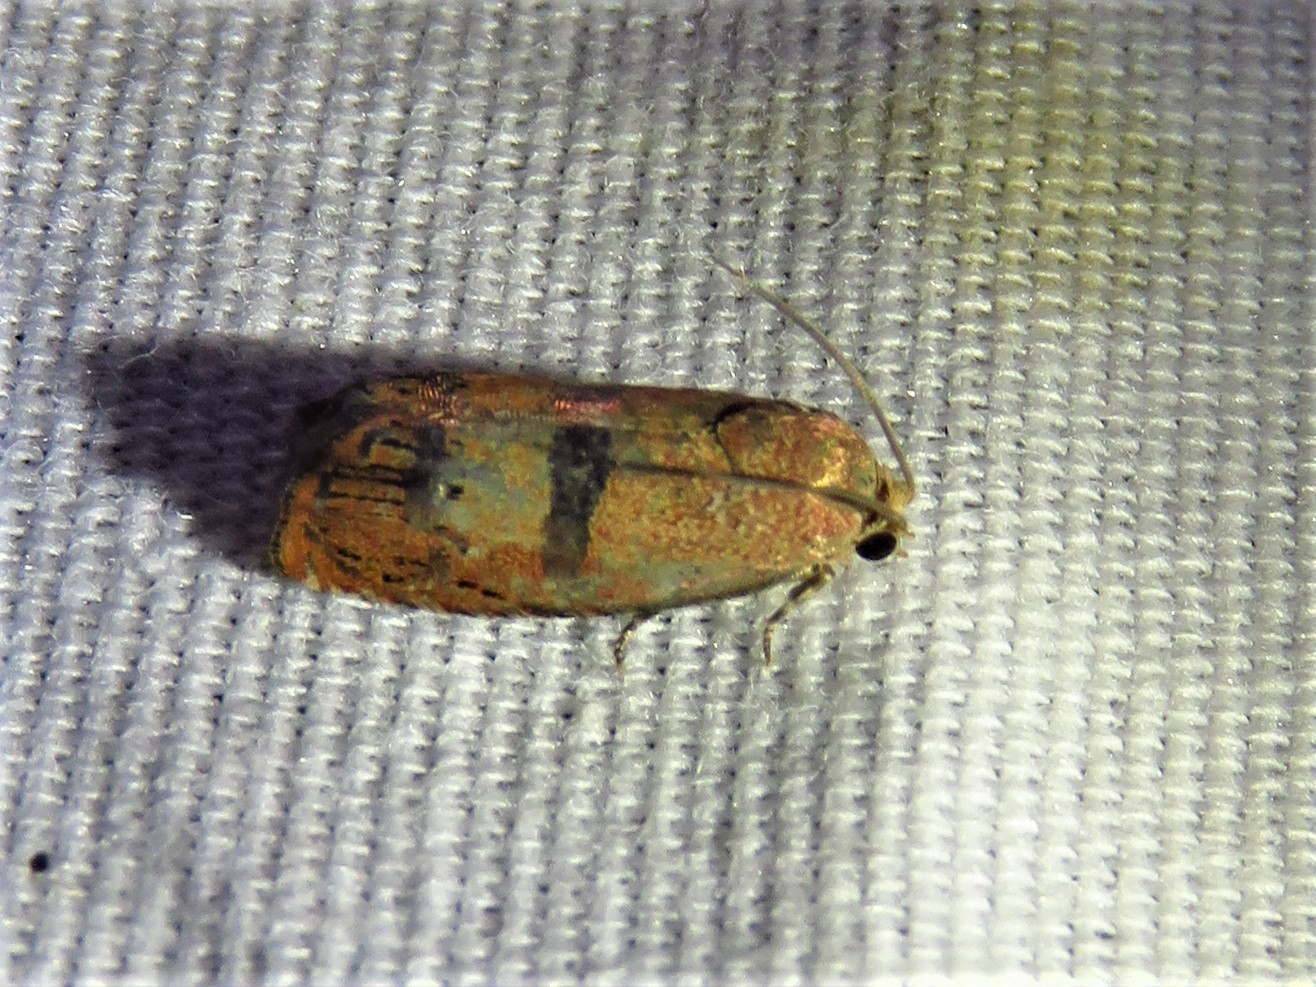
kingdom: Animalia
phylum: Arthropoda
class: Insecta
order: Lepidoptera
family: Tortricidae
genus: Cydia
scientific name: Cydia latiferreana
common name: Filbertworm moth
